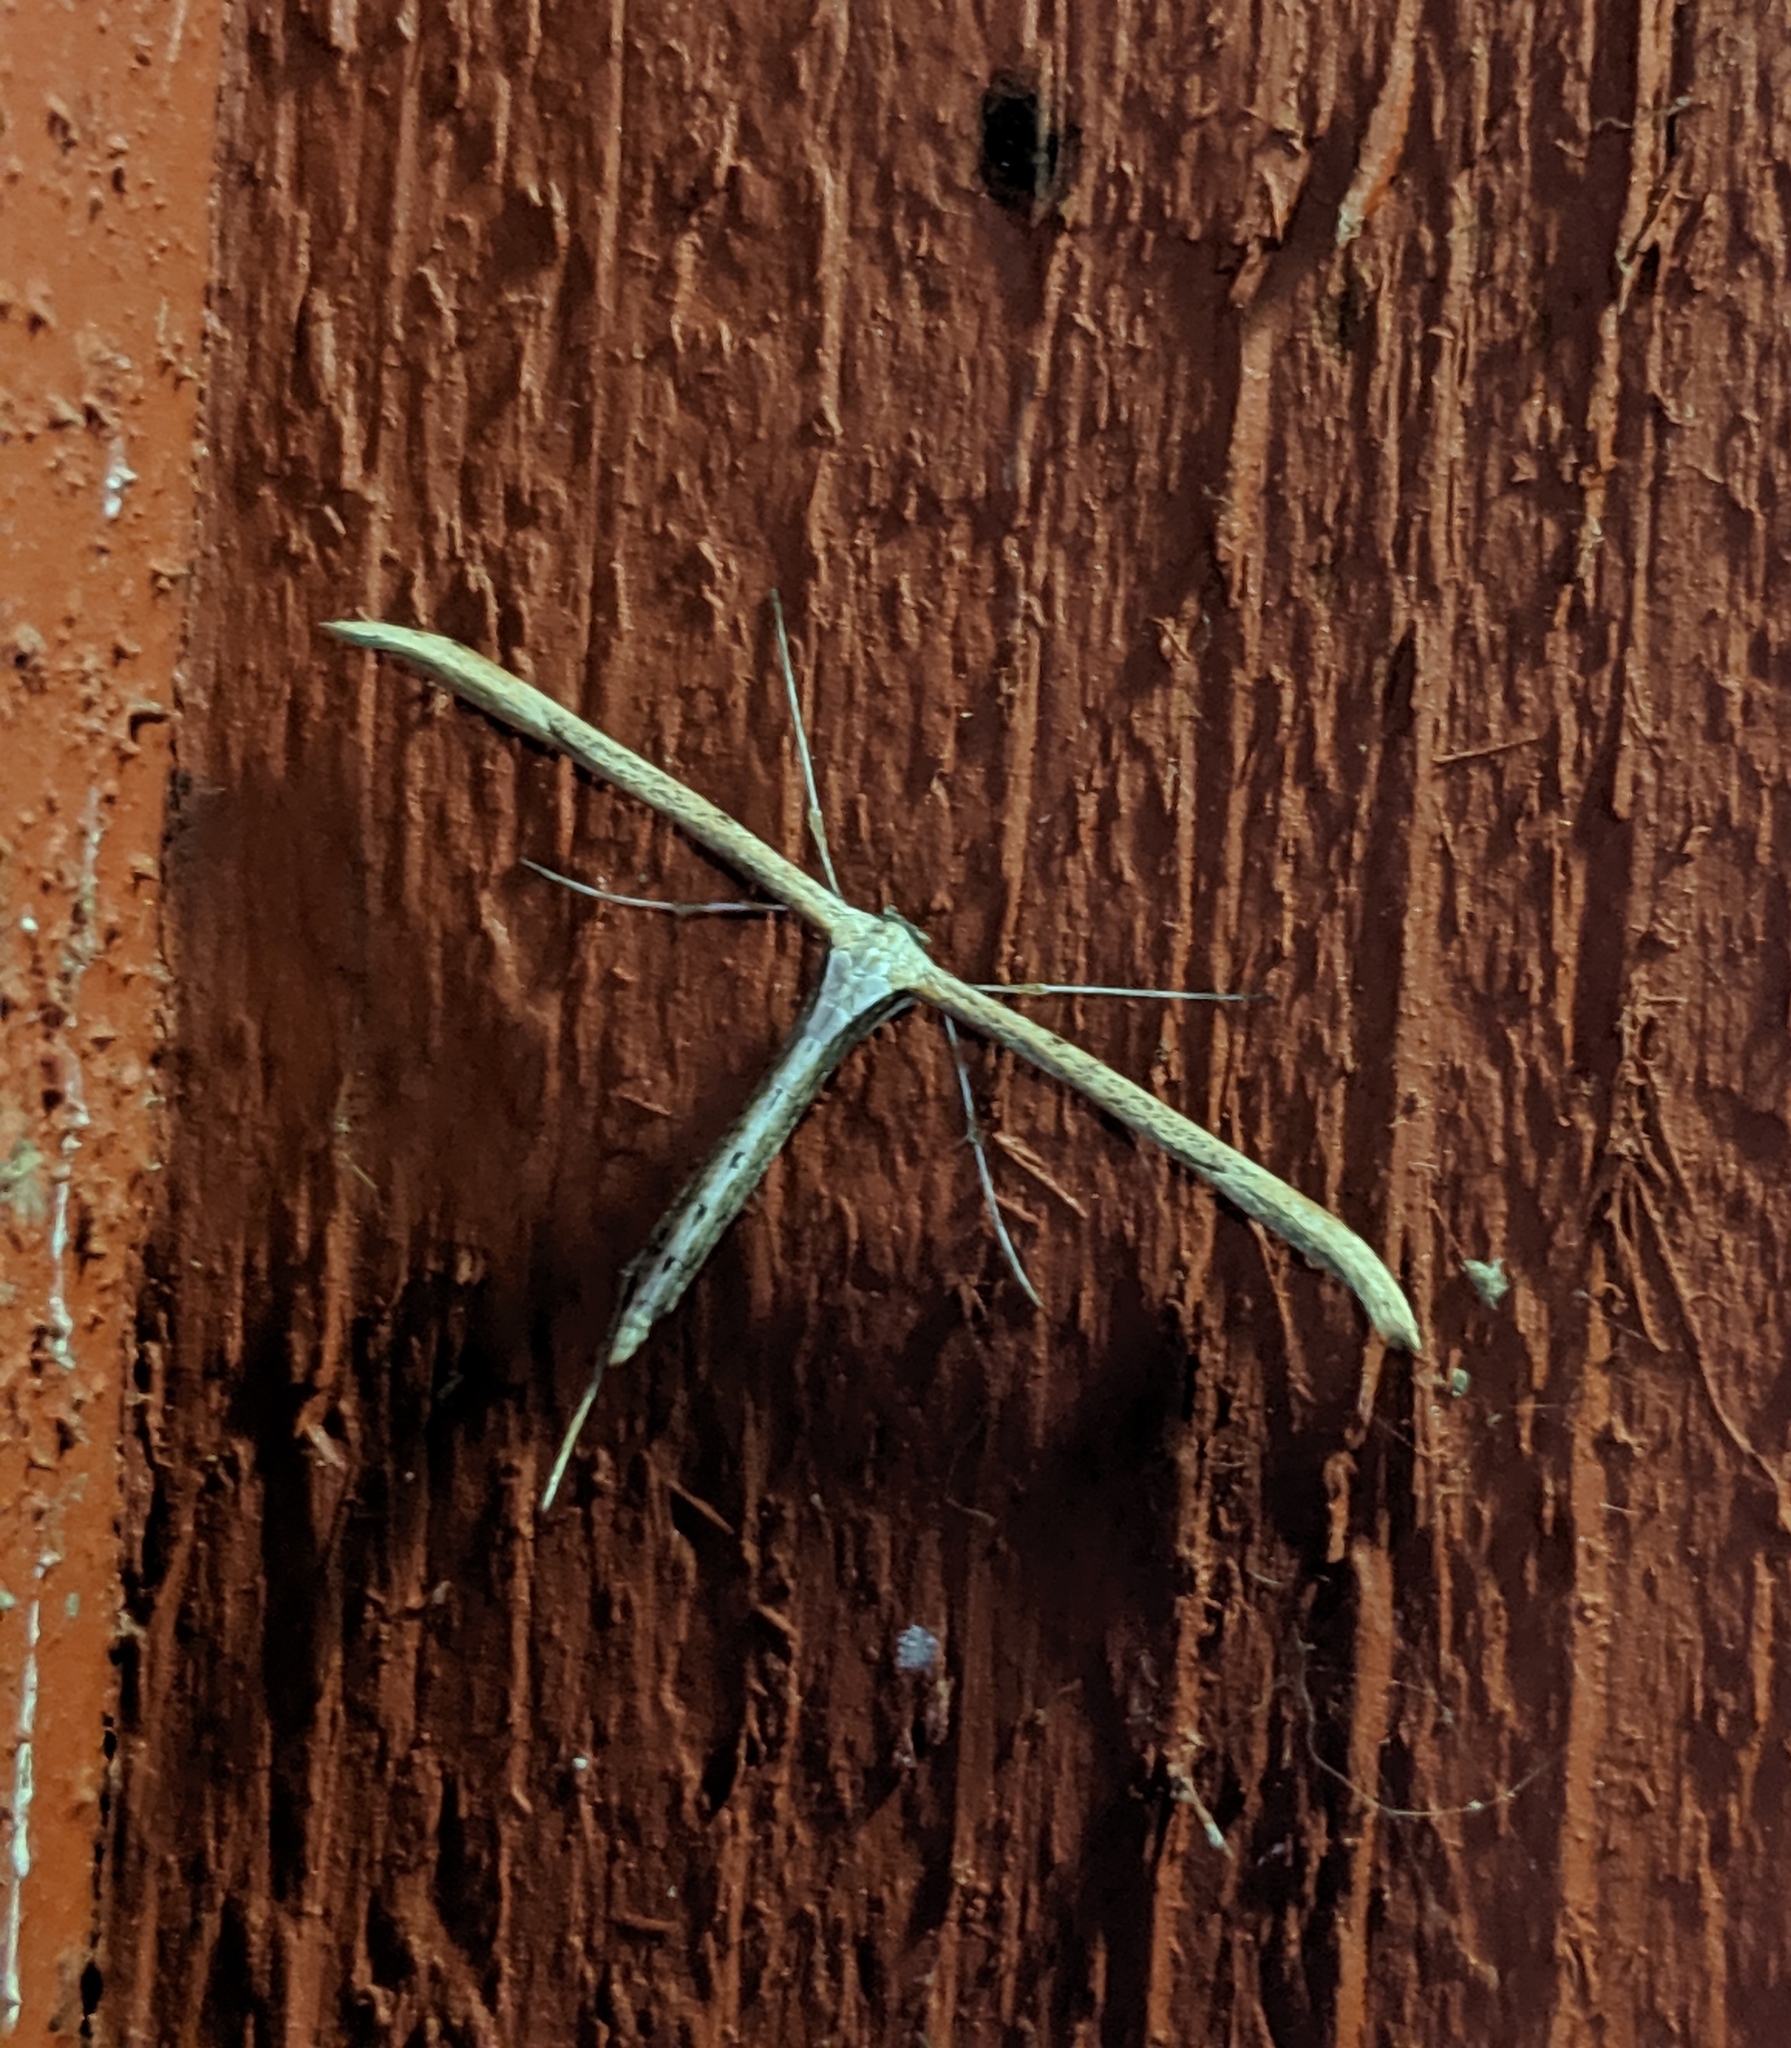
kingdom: Animalia
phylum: Arthropoda
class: Insecta
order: Lepidoptera
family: Pterophoridae
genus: Emmelina
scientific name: Emmelina monodactyla
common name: Common plume
